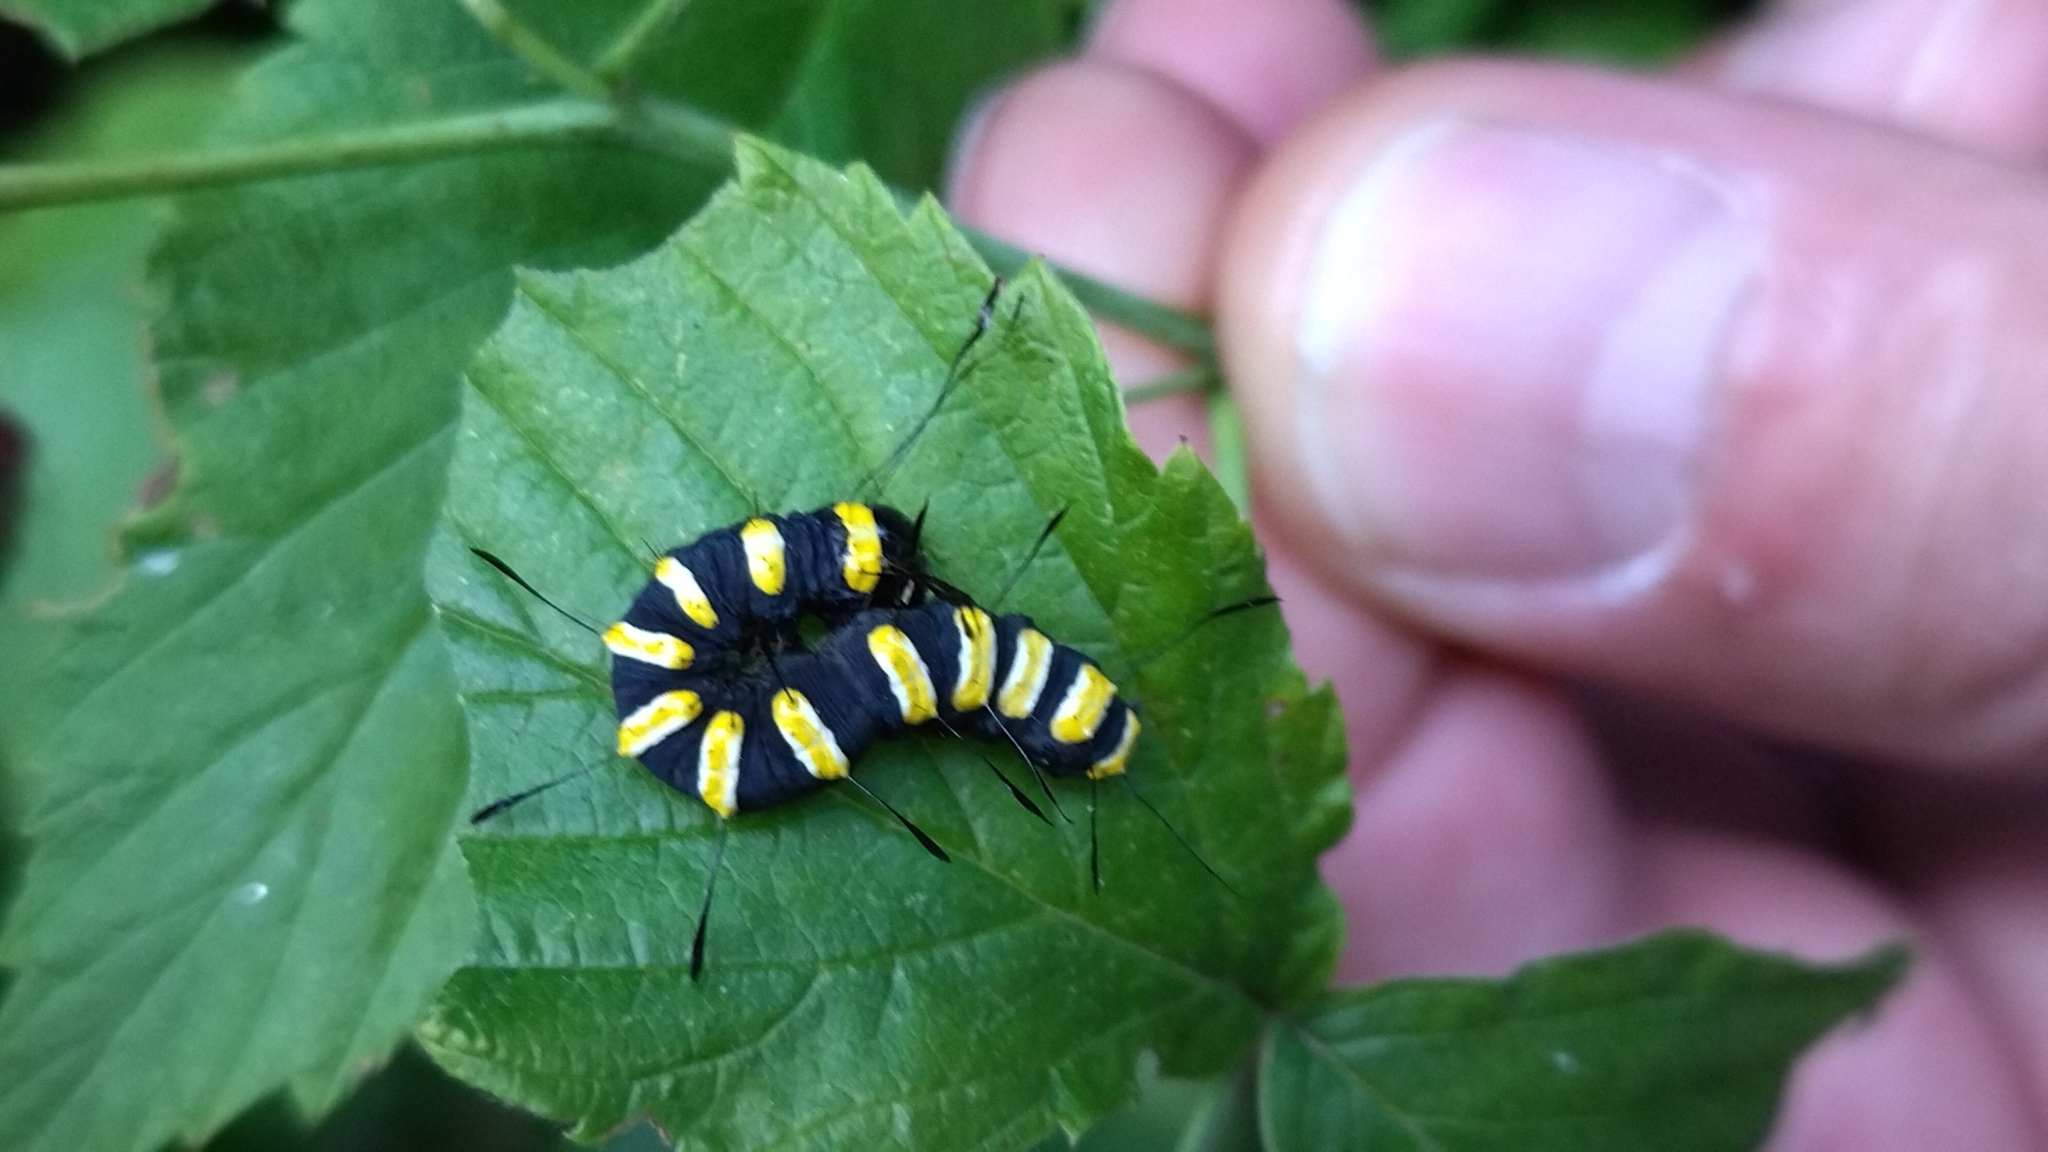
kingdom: Animalia
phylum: Arthropoda
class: Insecta
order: Lepidoptera
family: Noctuidae
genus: Acronicta
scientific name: Acronicta alni
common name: Alder moth
